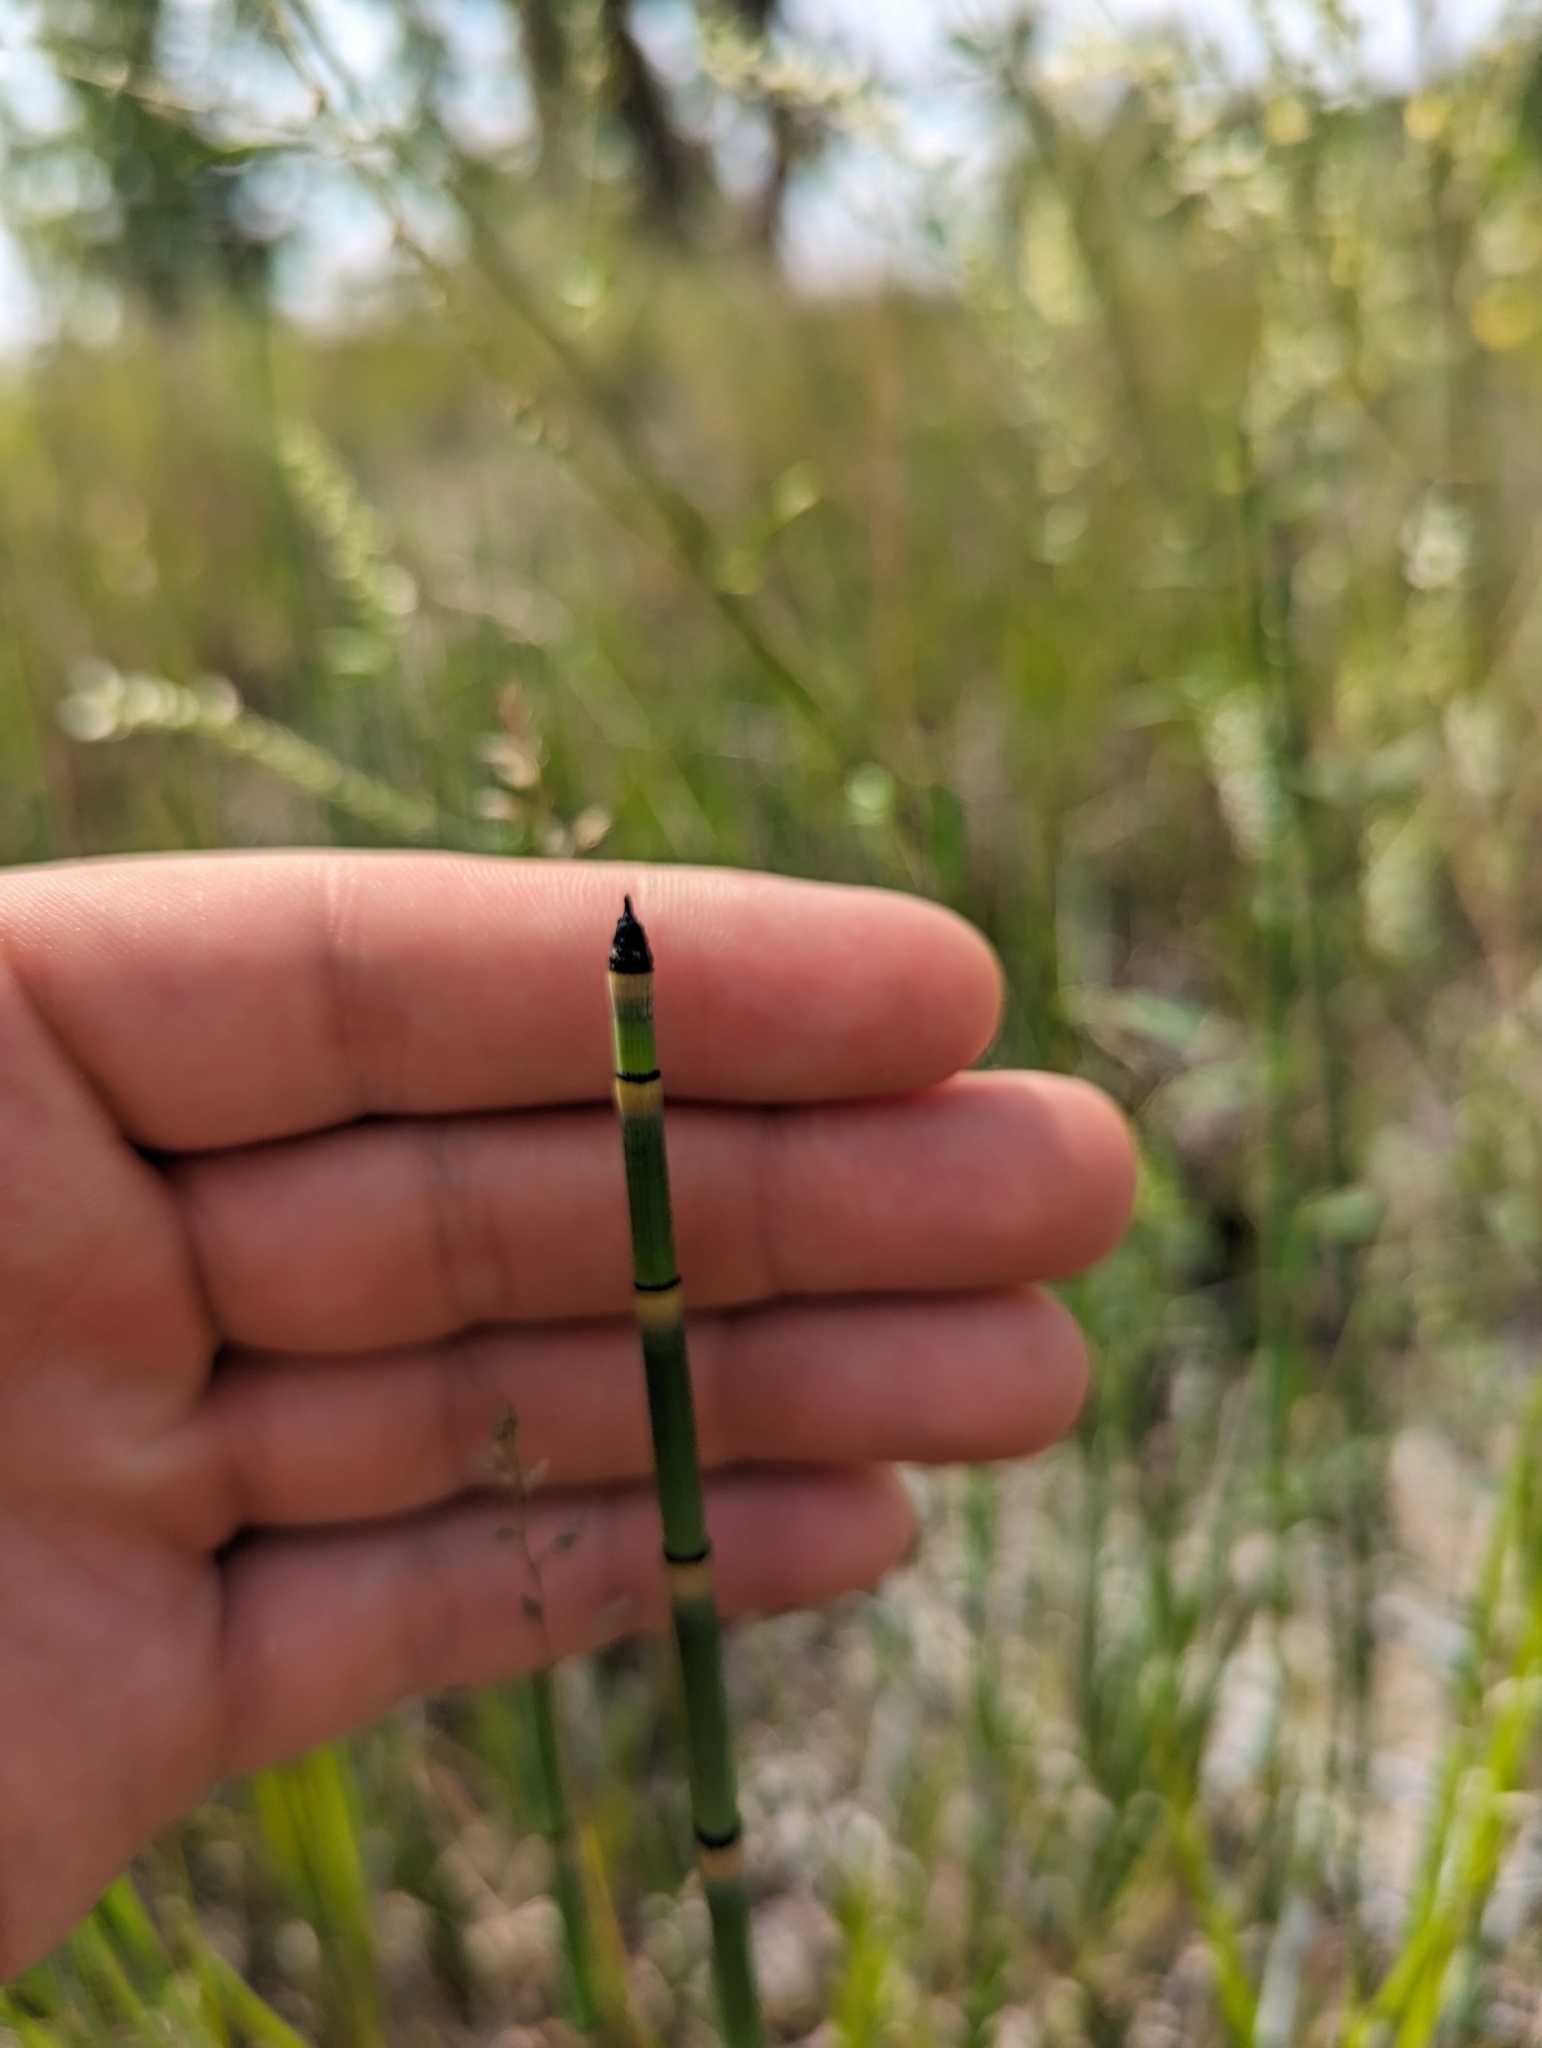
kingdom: Plantae
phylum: Tracheophyta
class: Polypodiopsida
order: Equisetales
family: Equisetaceae
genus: Equisetum
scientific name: Equisetum hyemale
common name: Rough horsetail
